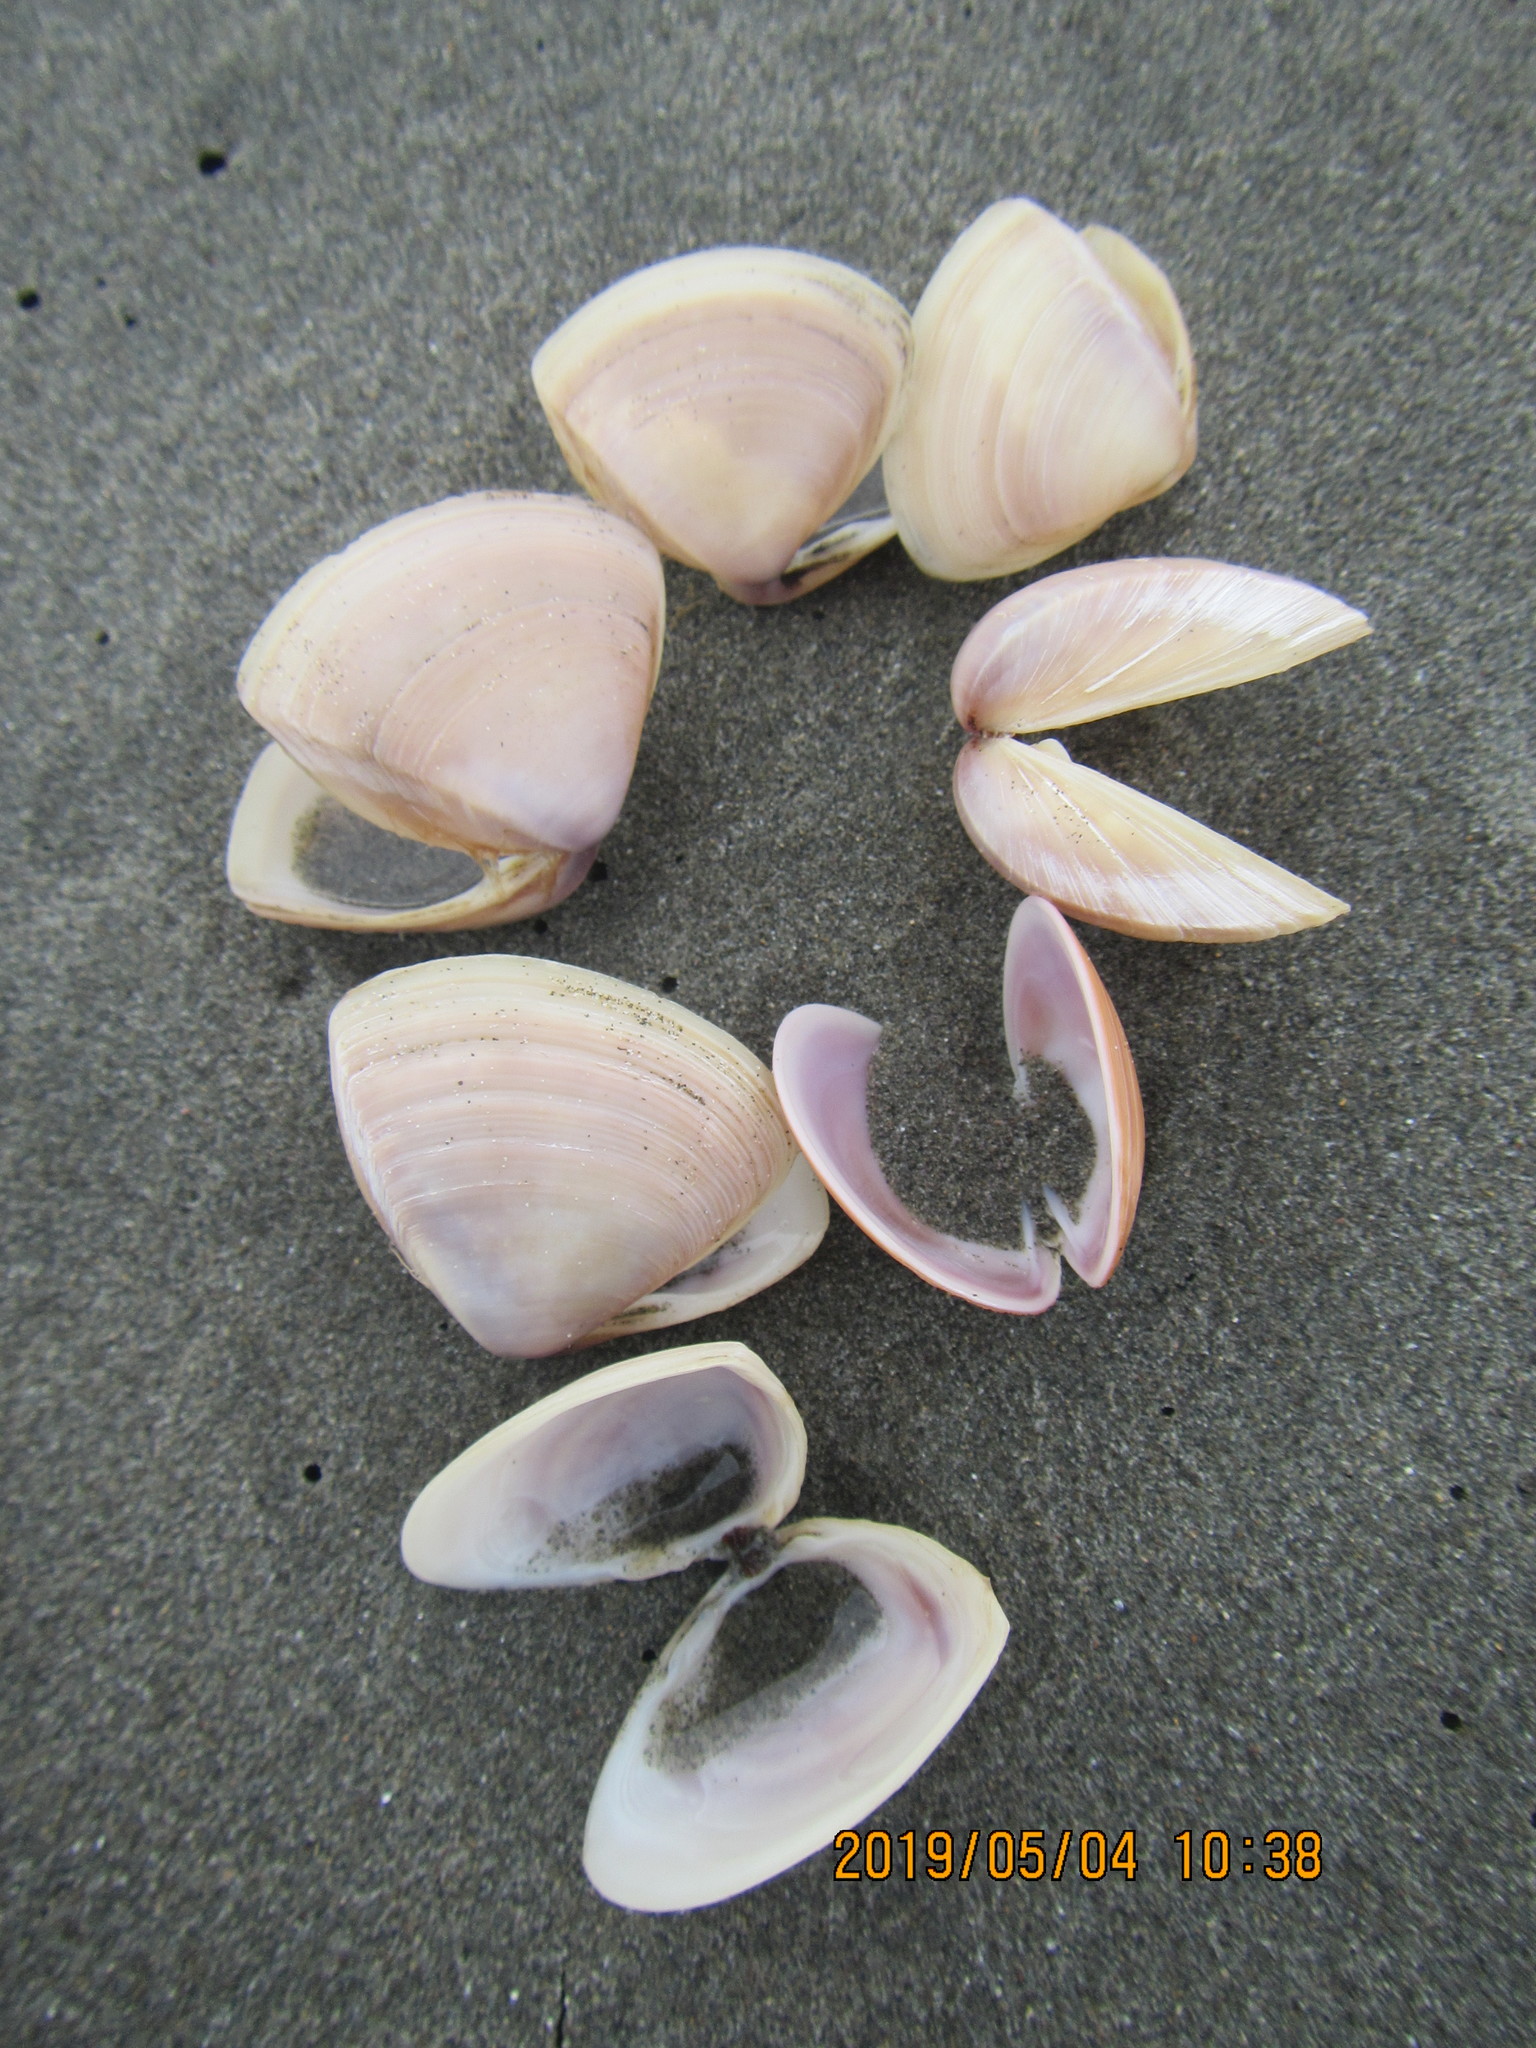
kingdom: Animalia
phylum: Mollusca
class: Bivalvia
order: Venerida
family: Mactridae
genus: Crassula
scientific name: Crassula aequilatera
